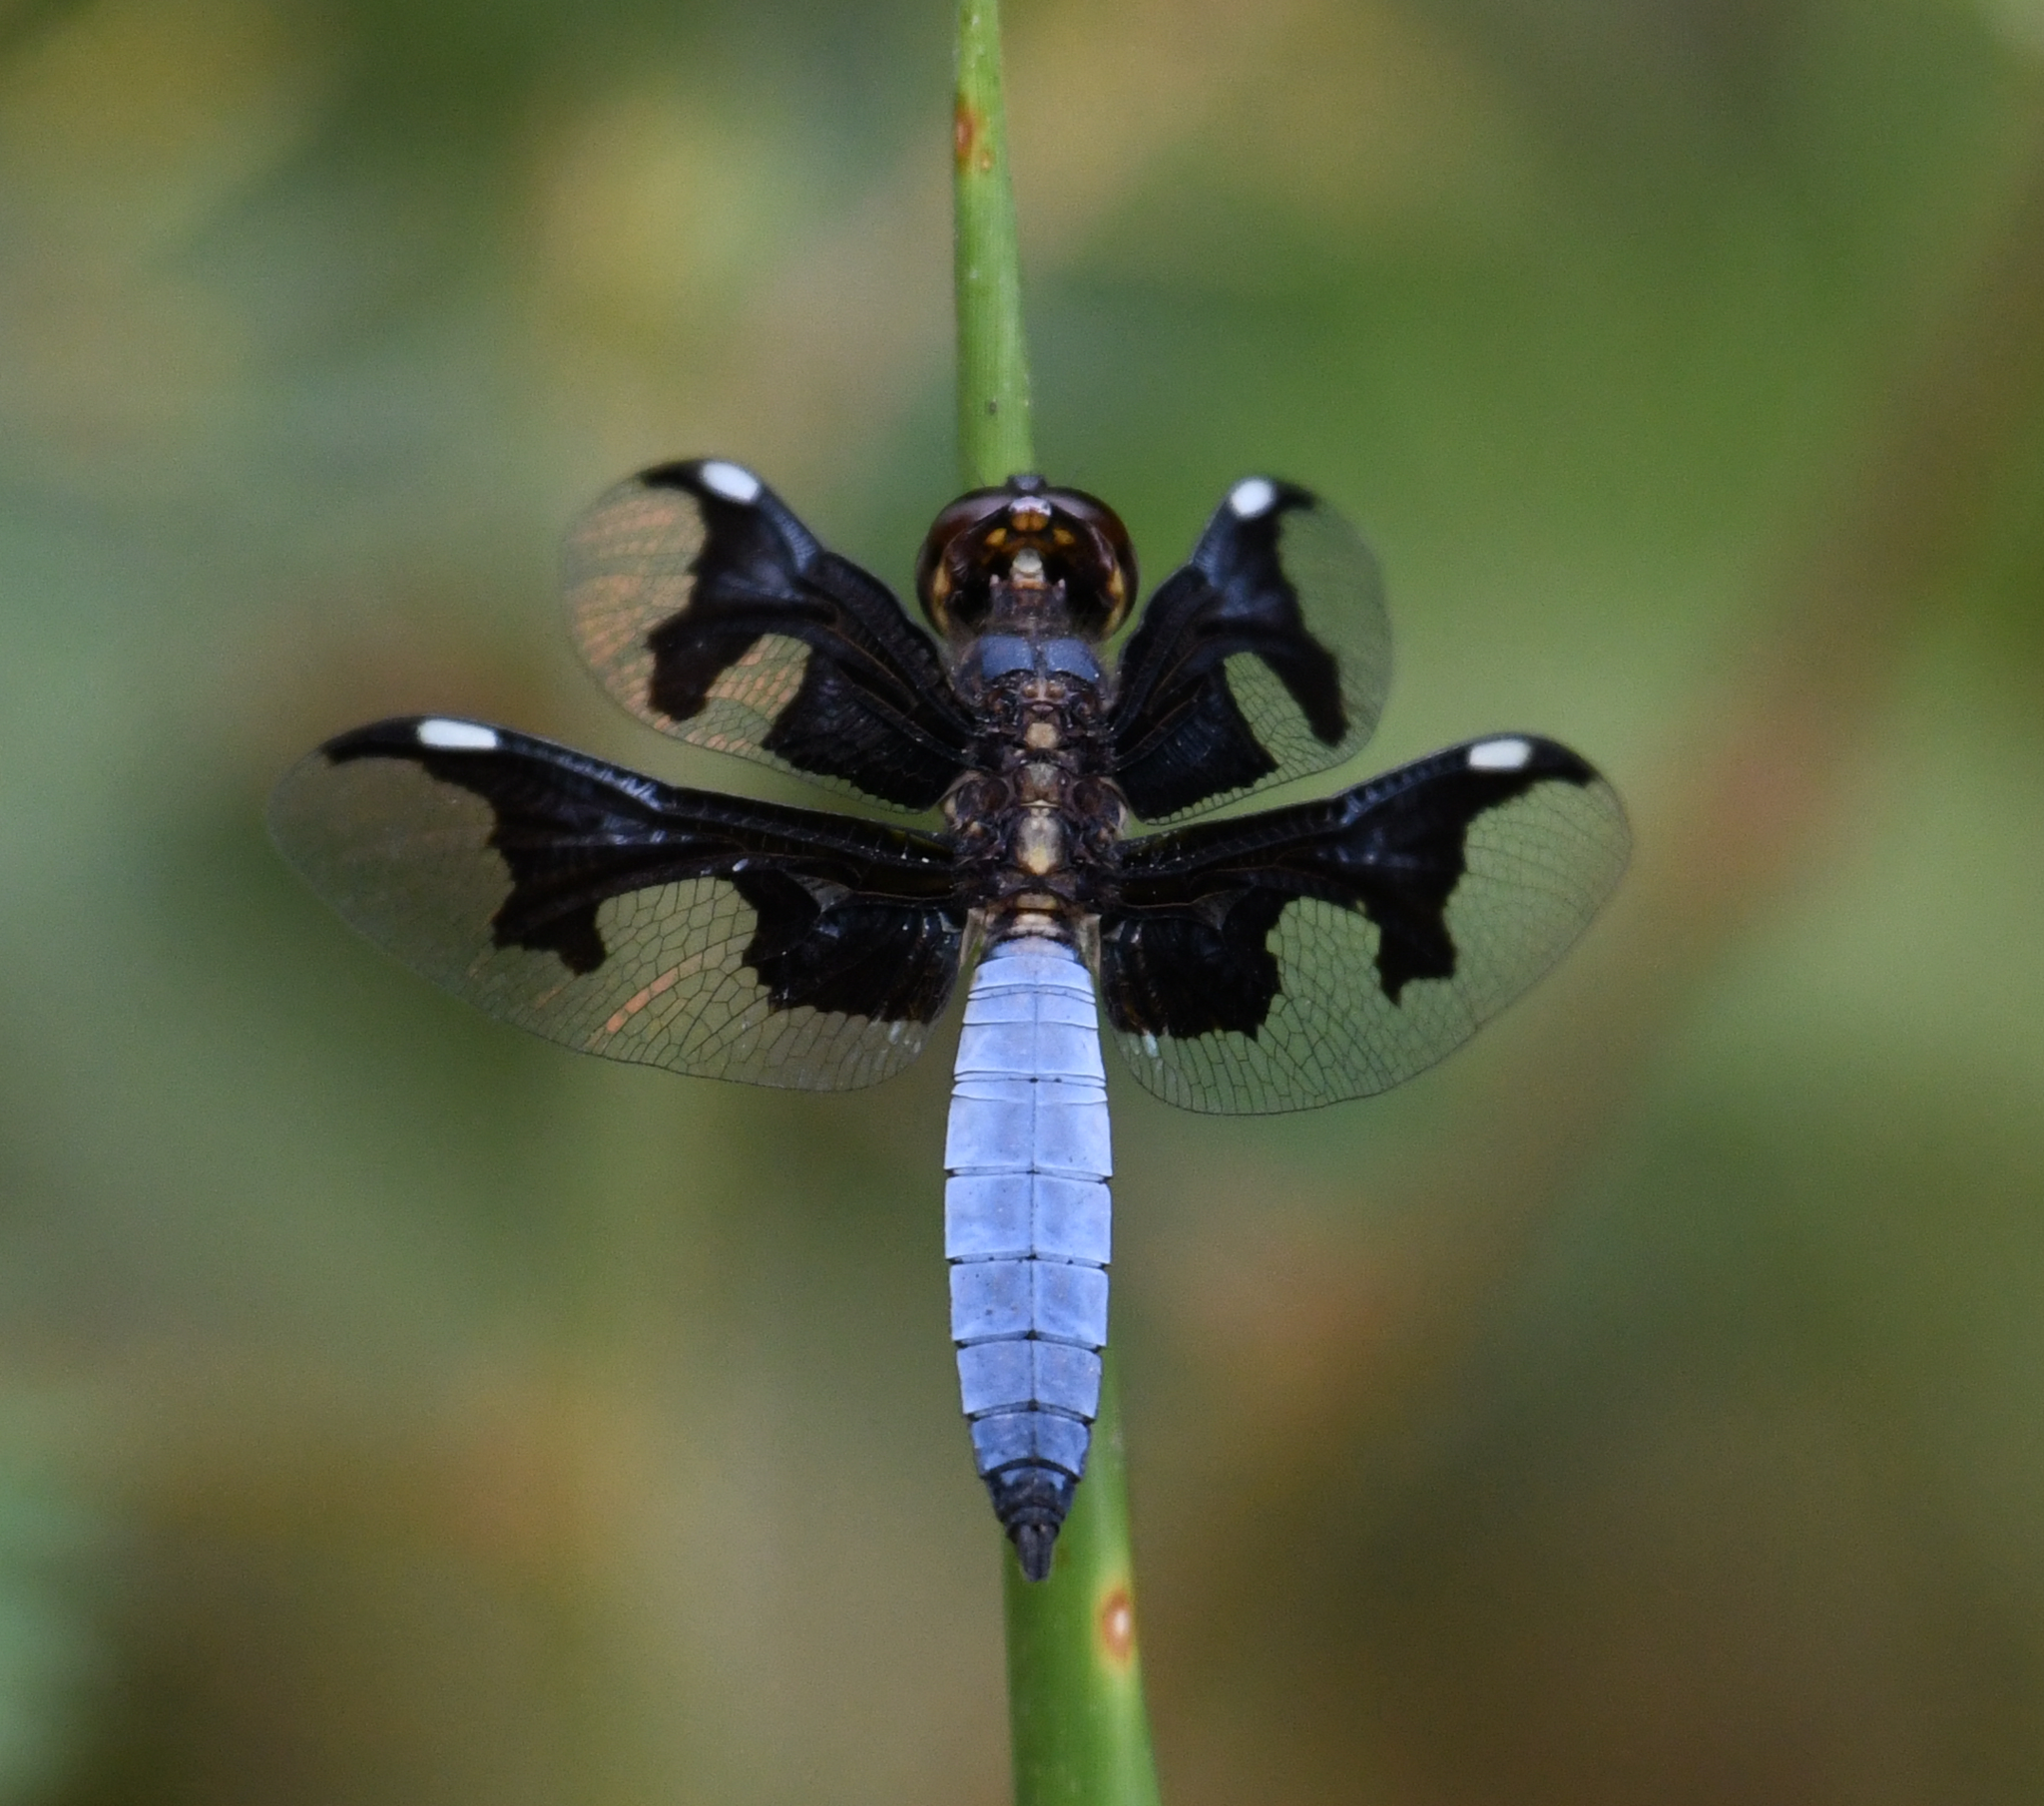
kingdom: Animalia
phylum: Arthropoda
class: Insecta
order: Odonata
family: Libellulidae
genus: Palpopleura
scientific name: Palpopleura portia
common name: Portia widow
